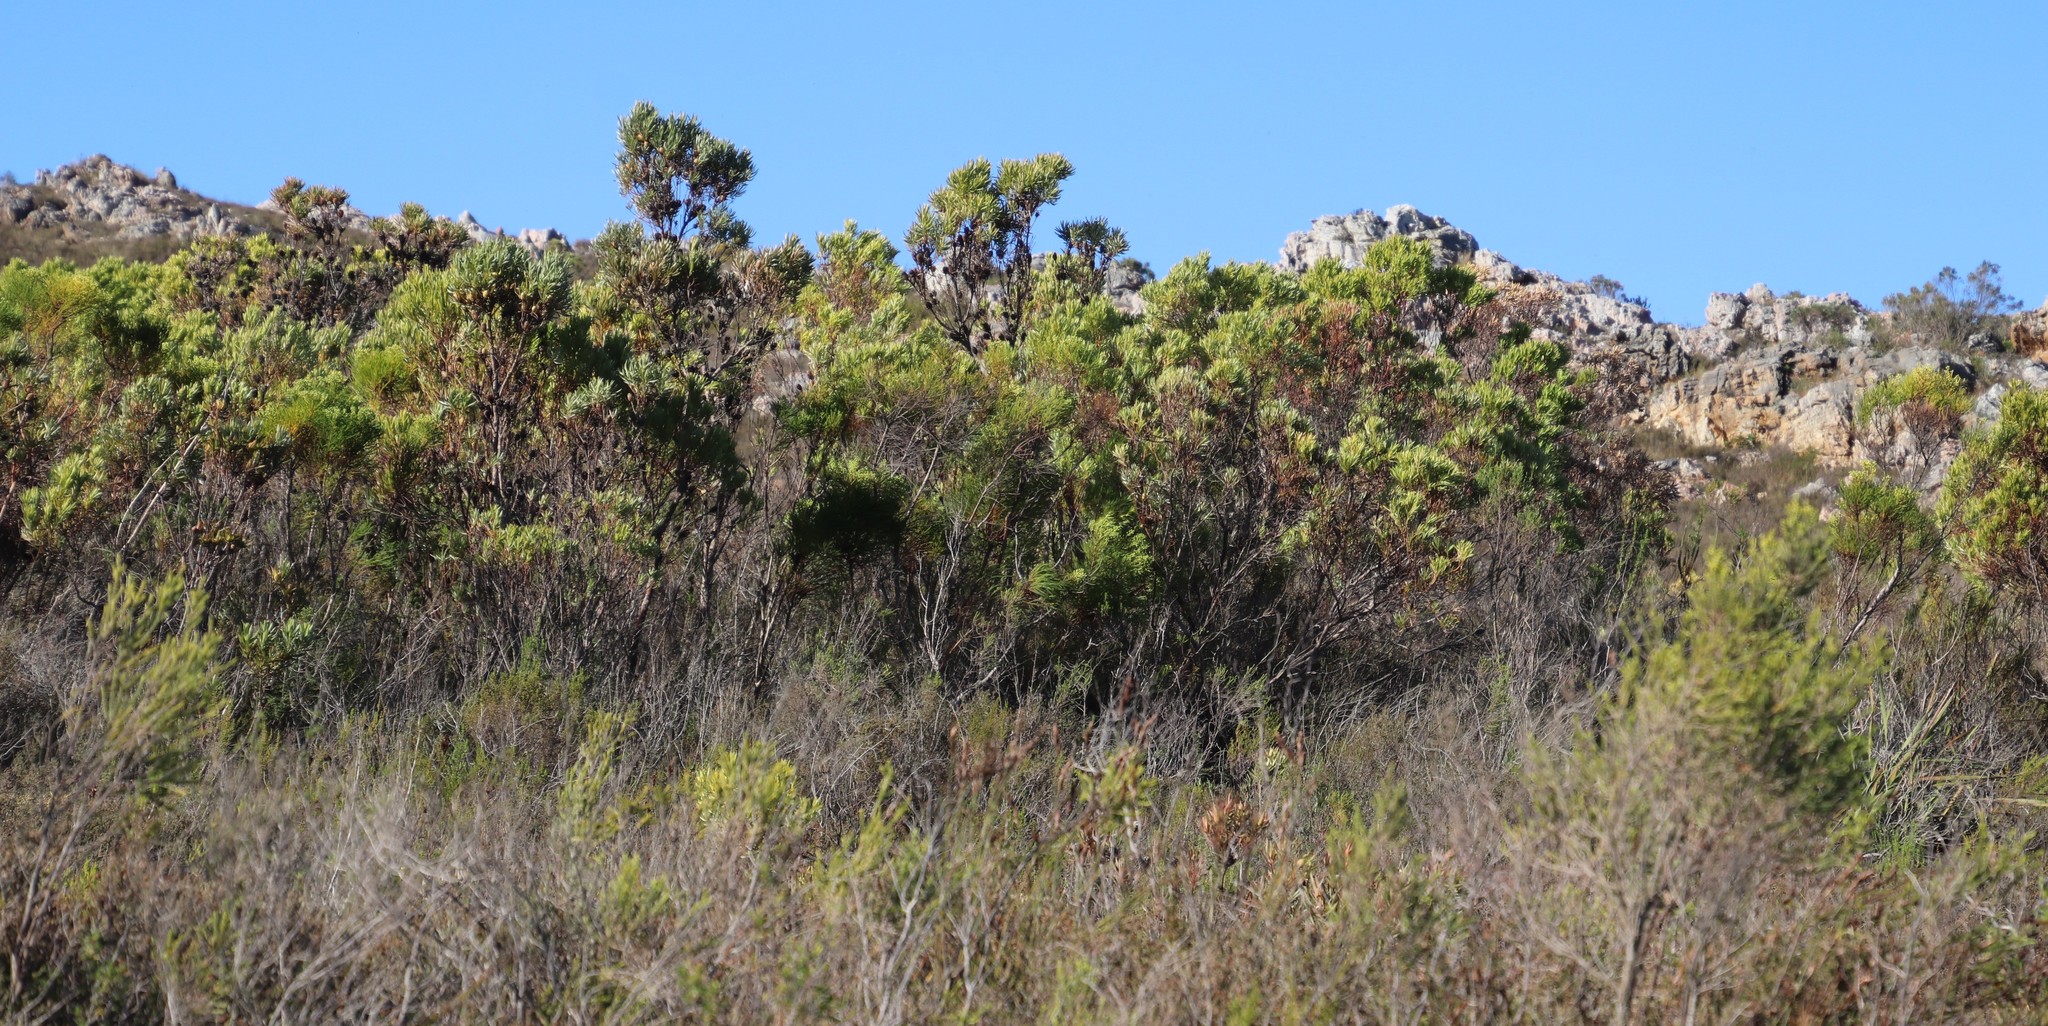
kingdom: Plantae
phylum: Tracheophyta
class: Magnoliopsida
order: Proteales
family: Proteaceae
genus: Leucadendron
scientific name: Leucadendron xanthoconus
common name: Sickle-leaf conebush
